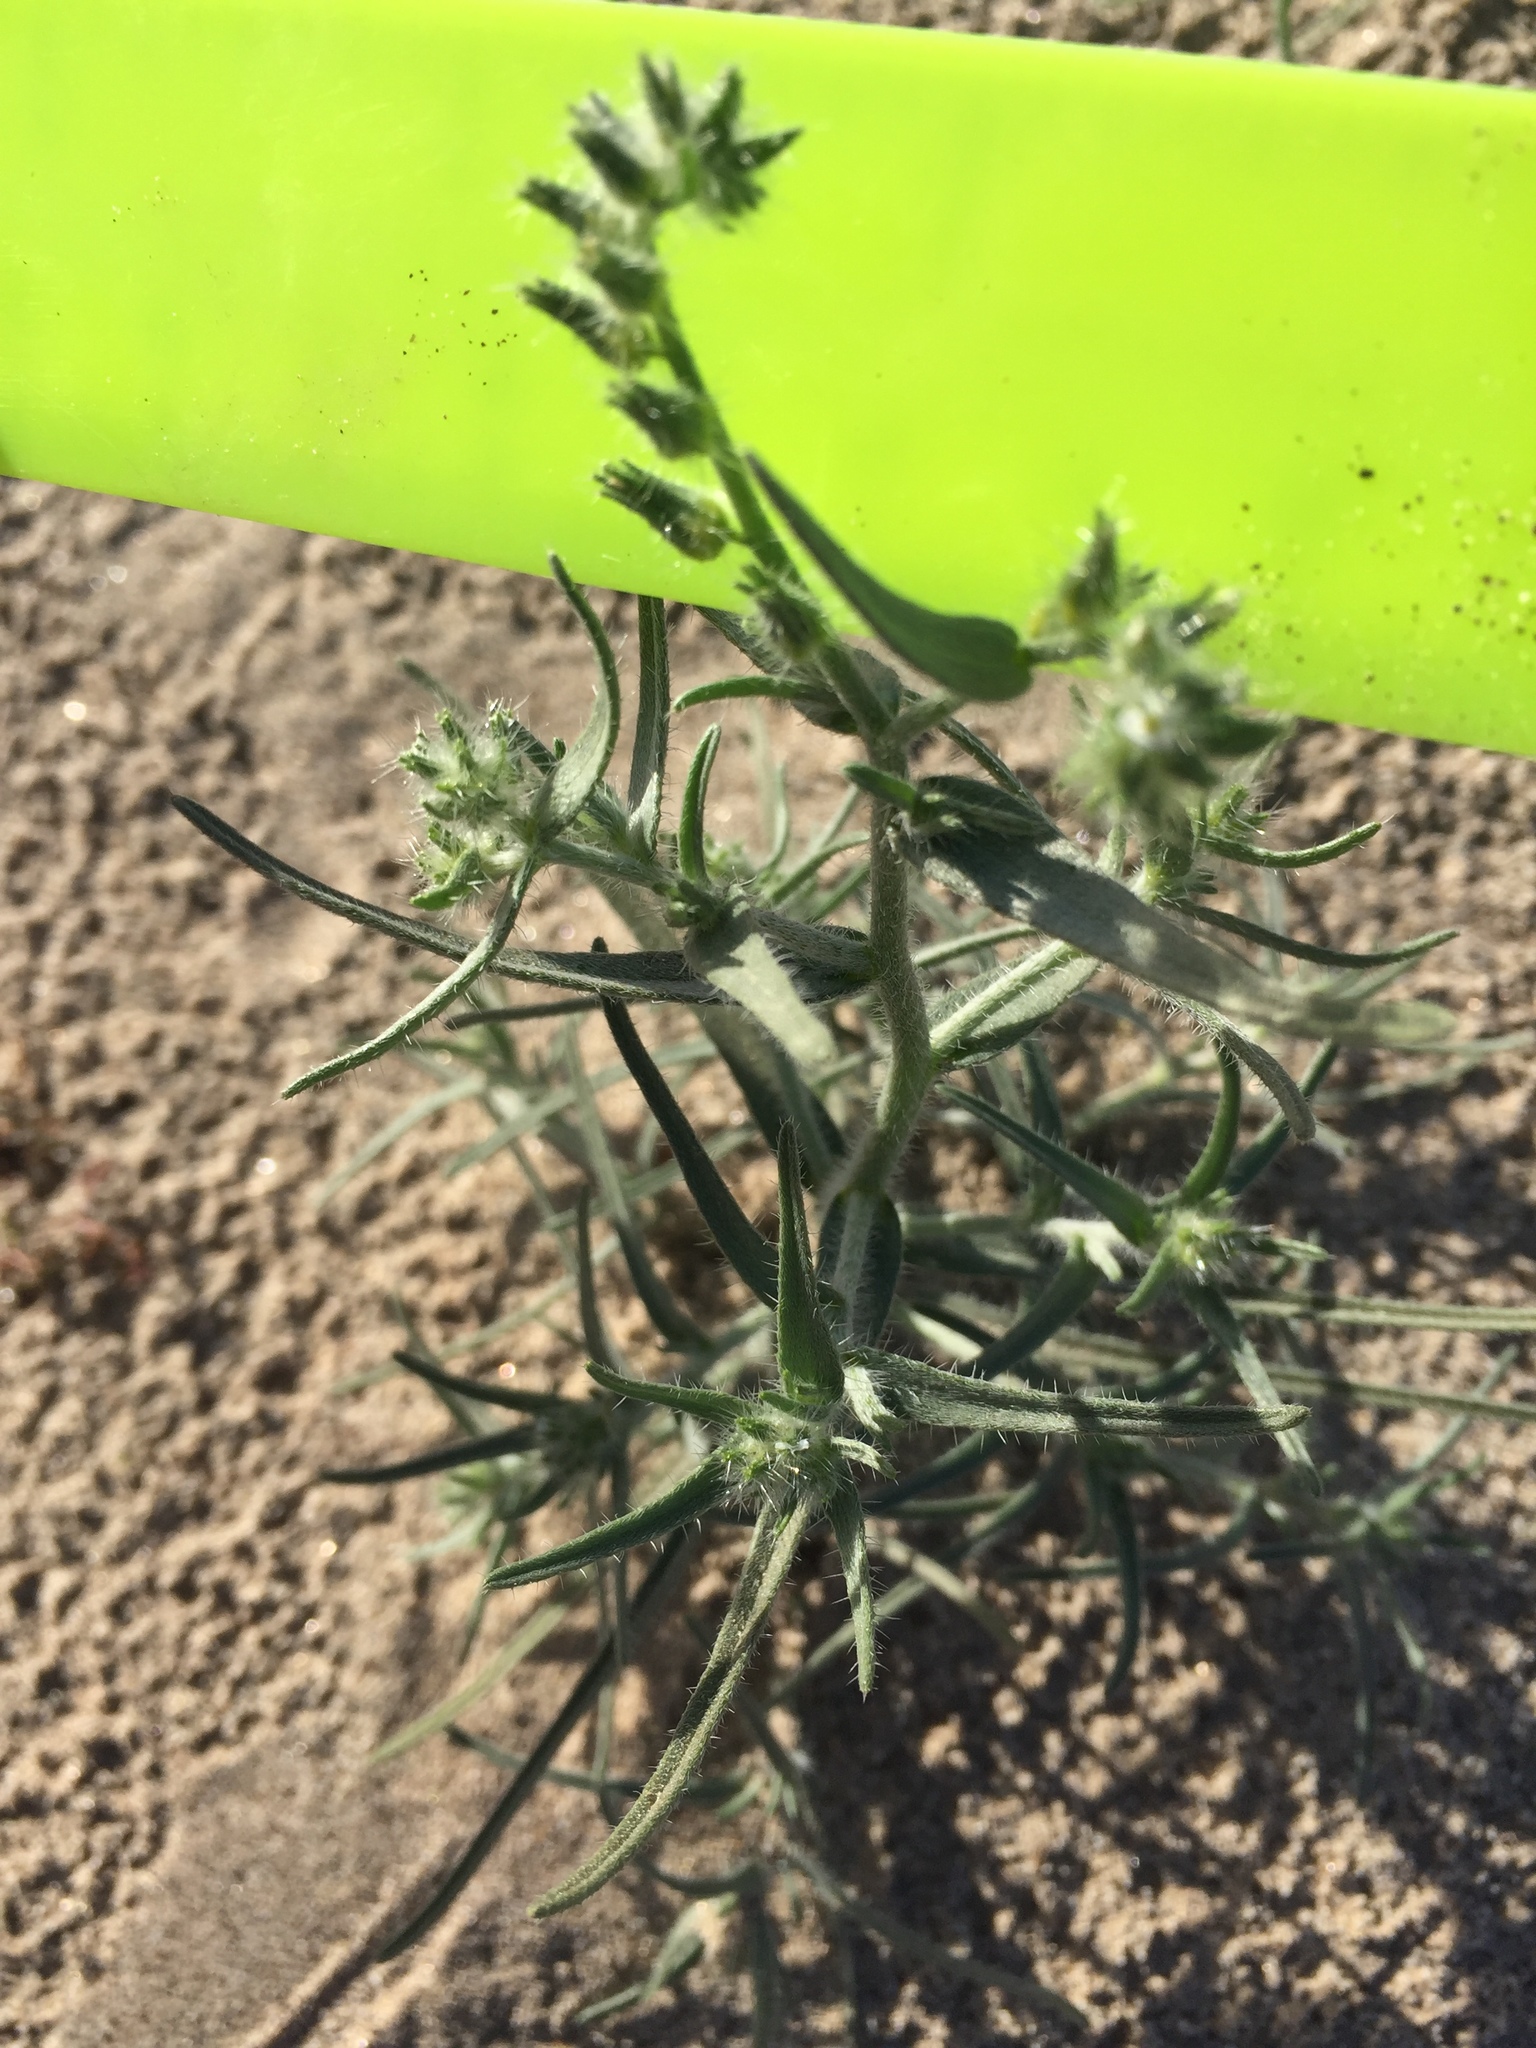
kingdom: Plantae
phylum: Tracheophyta
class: Magnoliopsida
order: Boraginales
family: Boraginaceae
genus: Johnstonella
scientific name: Johnstonella costata
